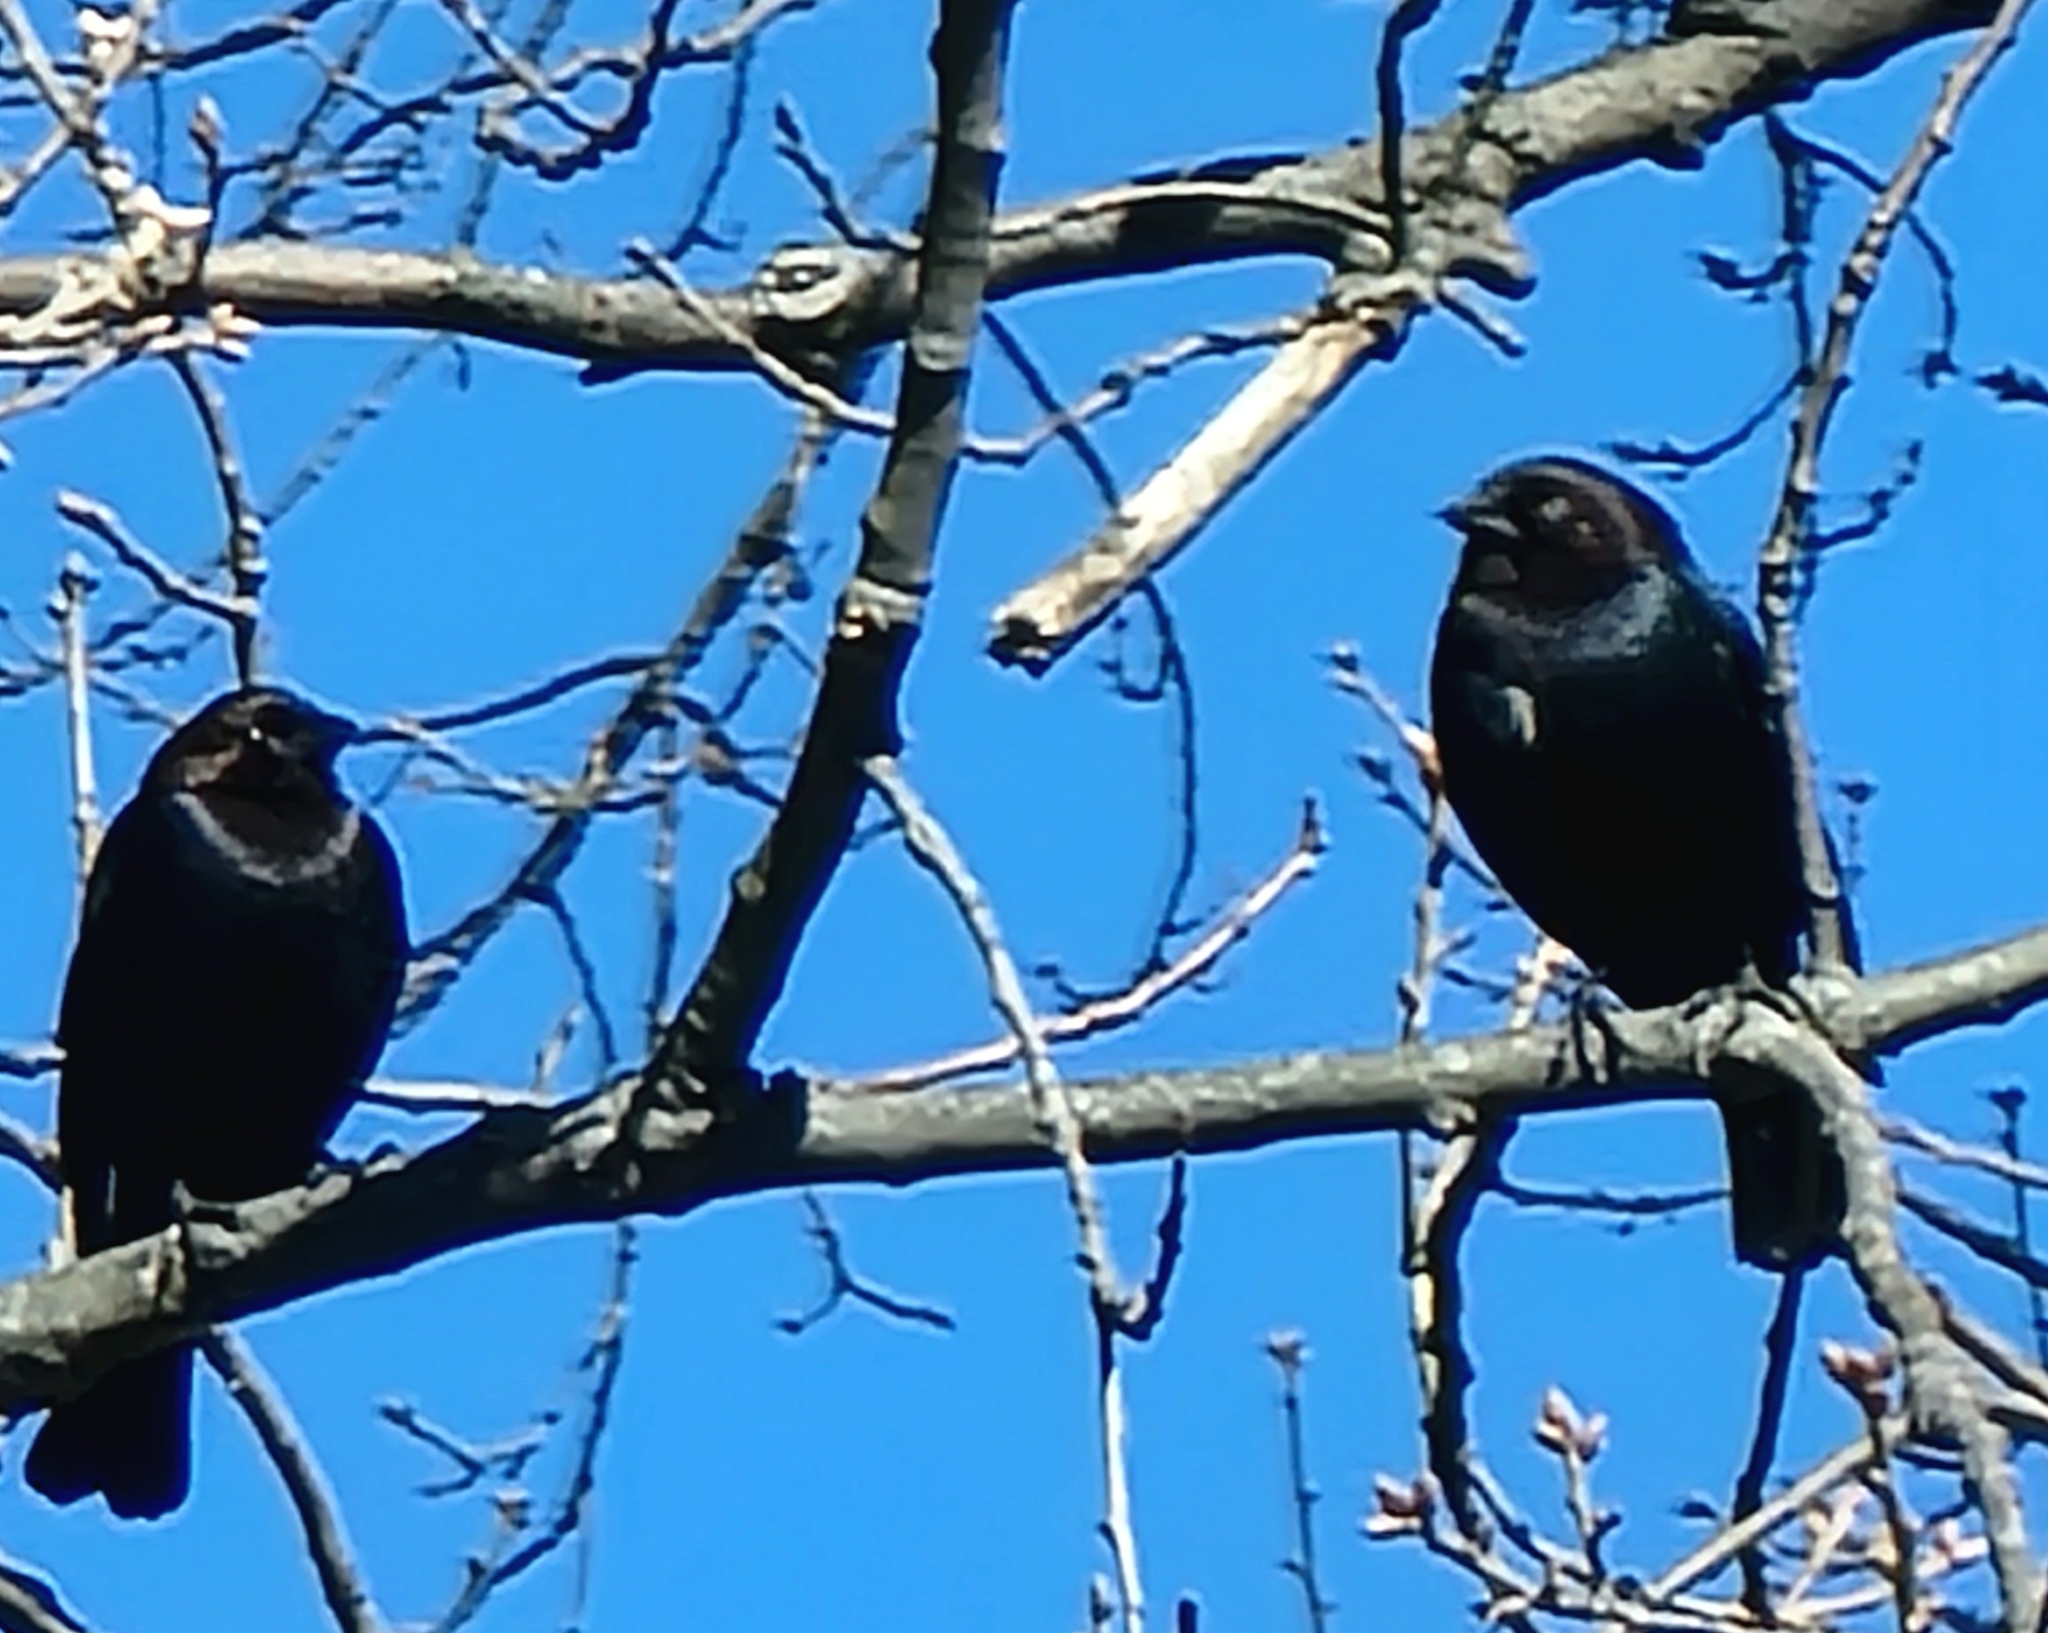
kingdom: Animalia
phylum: Chordata
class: Aves
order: Passeriformes
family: Icteridae
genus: Molothrus
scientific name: Molothrus ater
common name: Brown-headed cowbird
